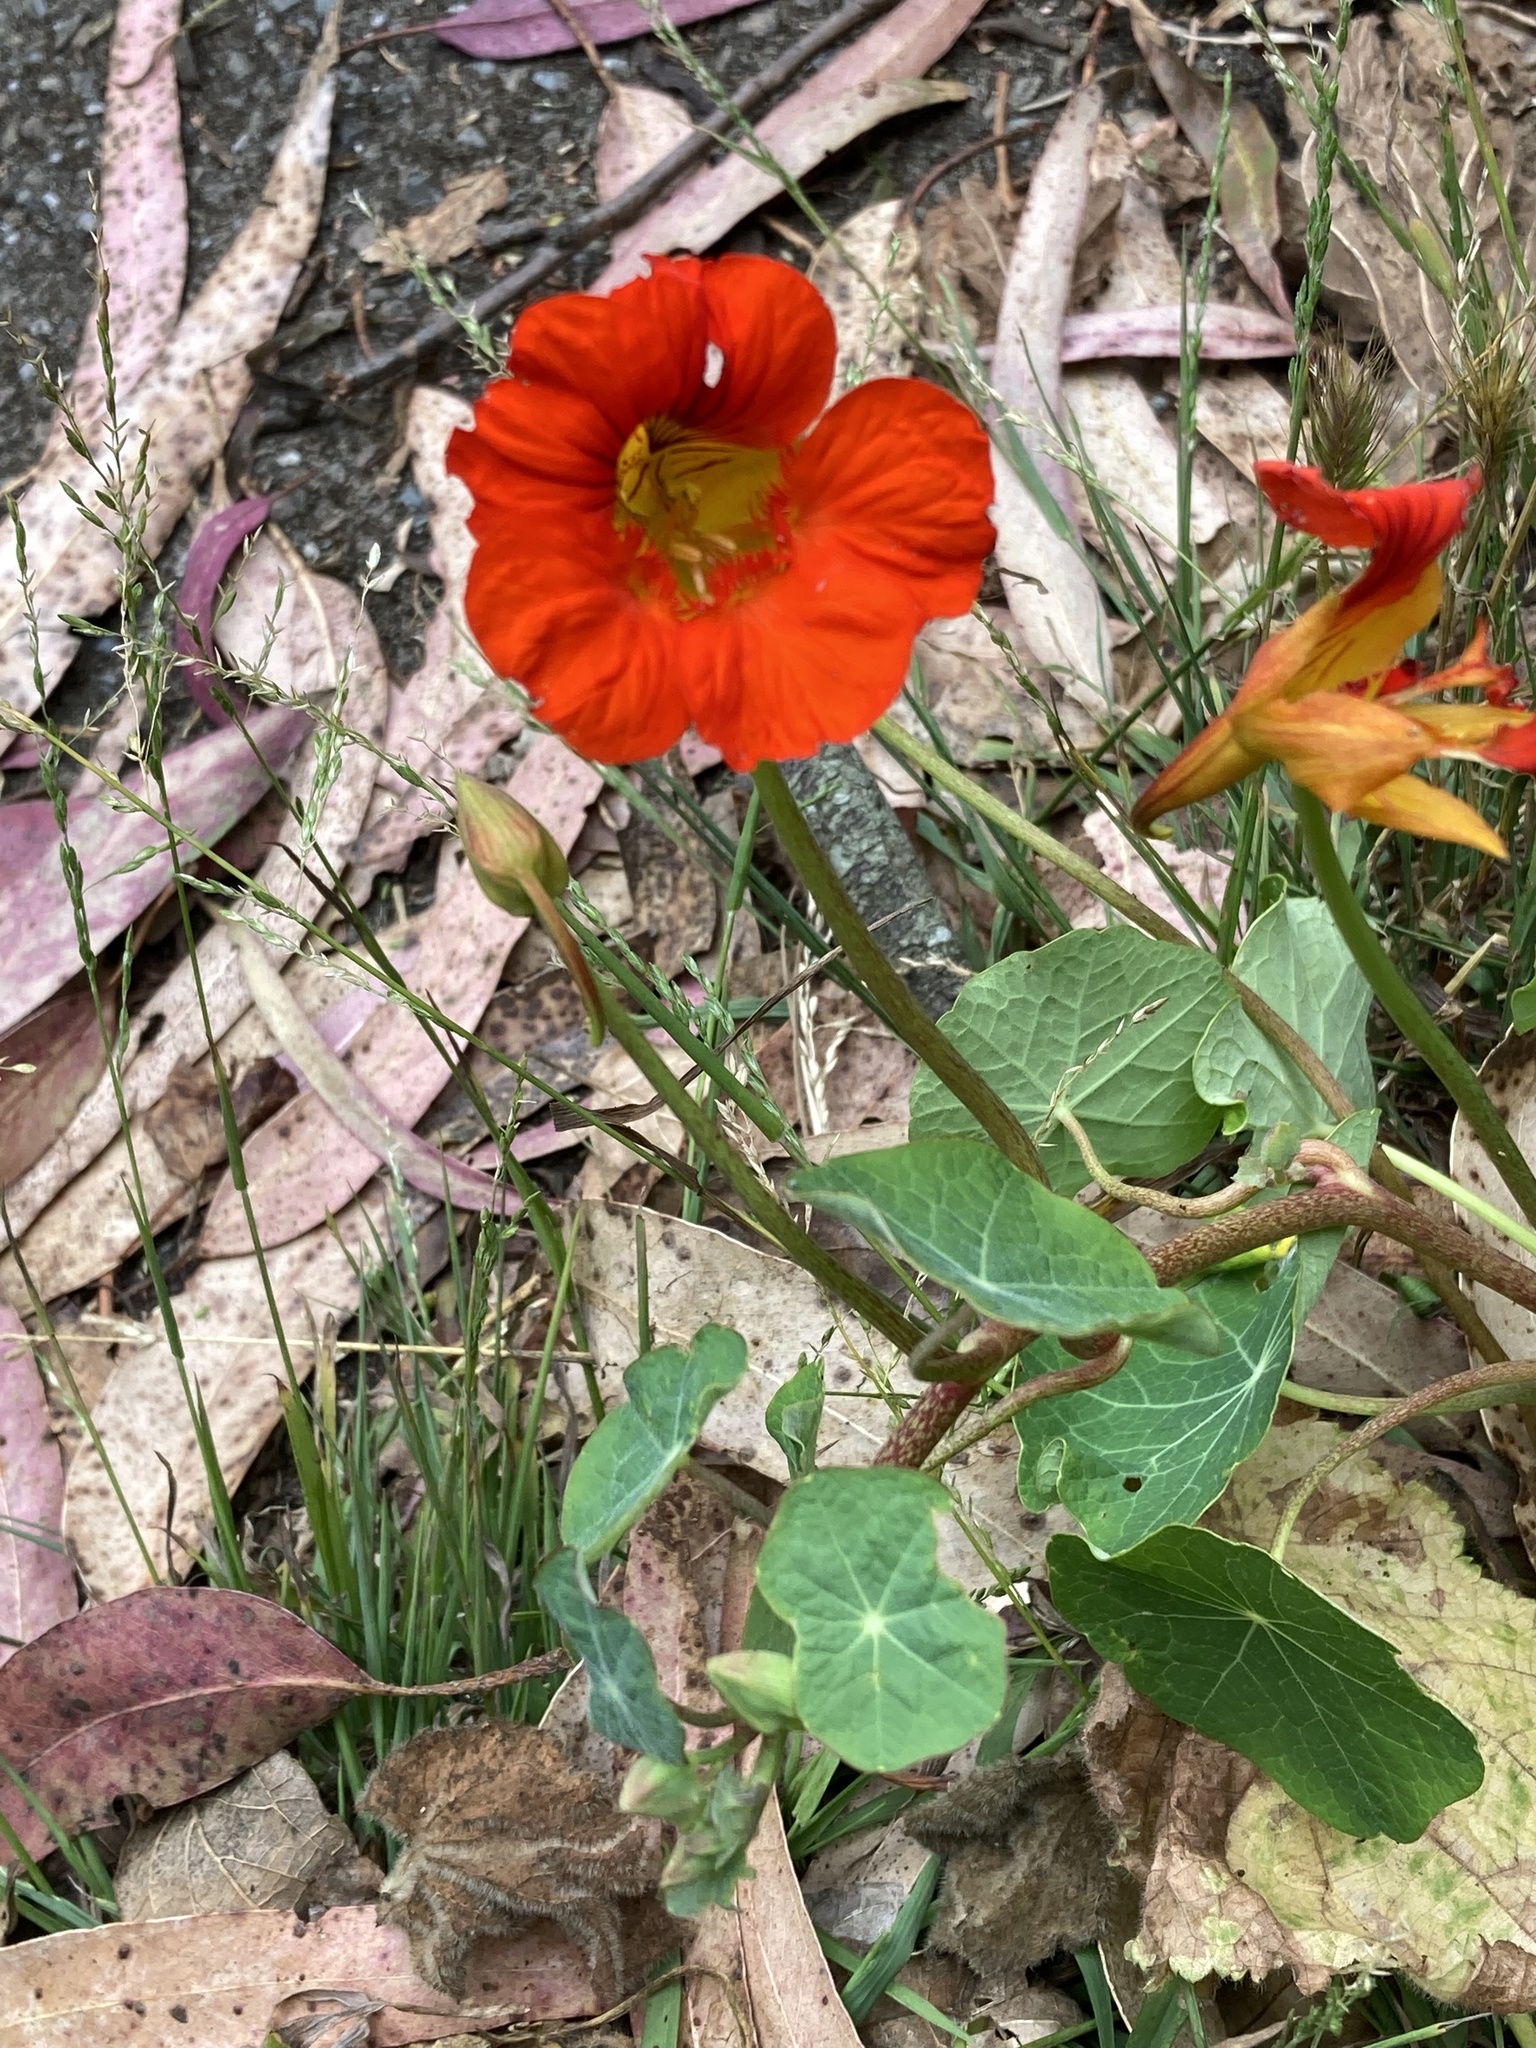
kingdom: Plantae
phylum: Tracheophyta
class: Magnoliopsida
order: Brassicales
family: Tropaeolaceae
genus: Tropaeolum
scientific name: Tropaeolum majus
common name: Nasturtium
